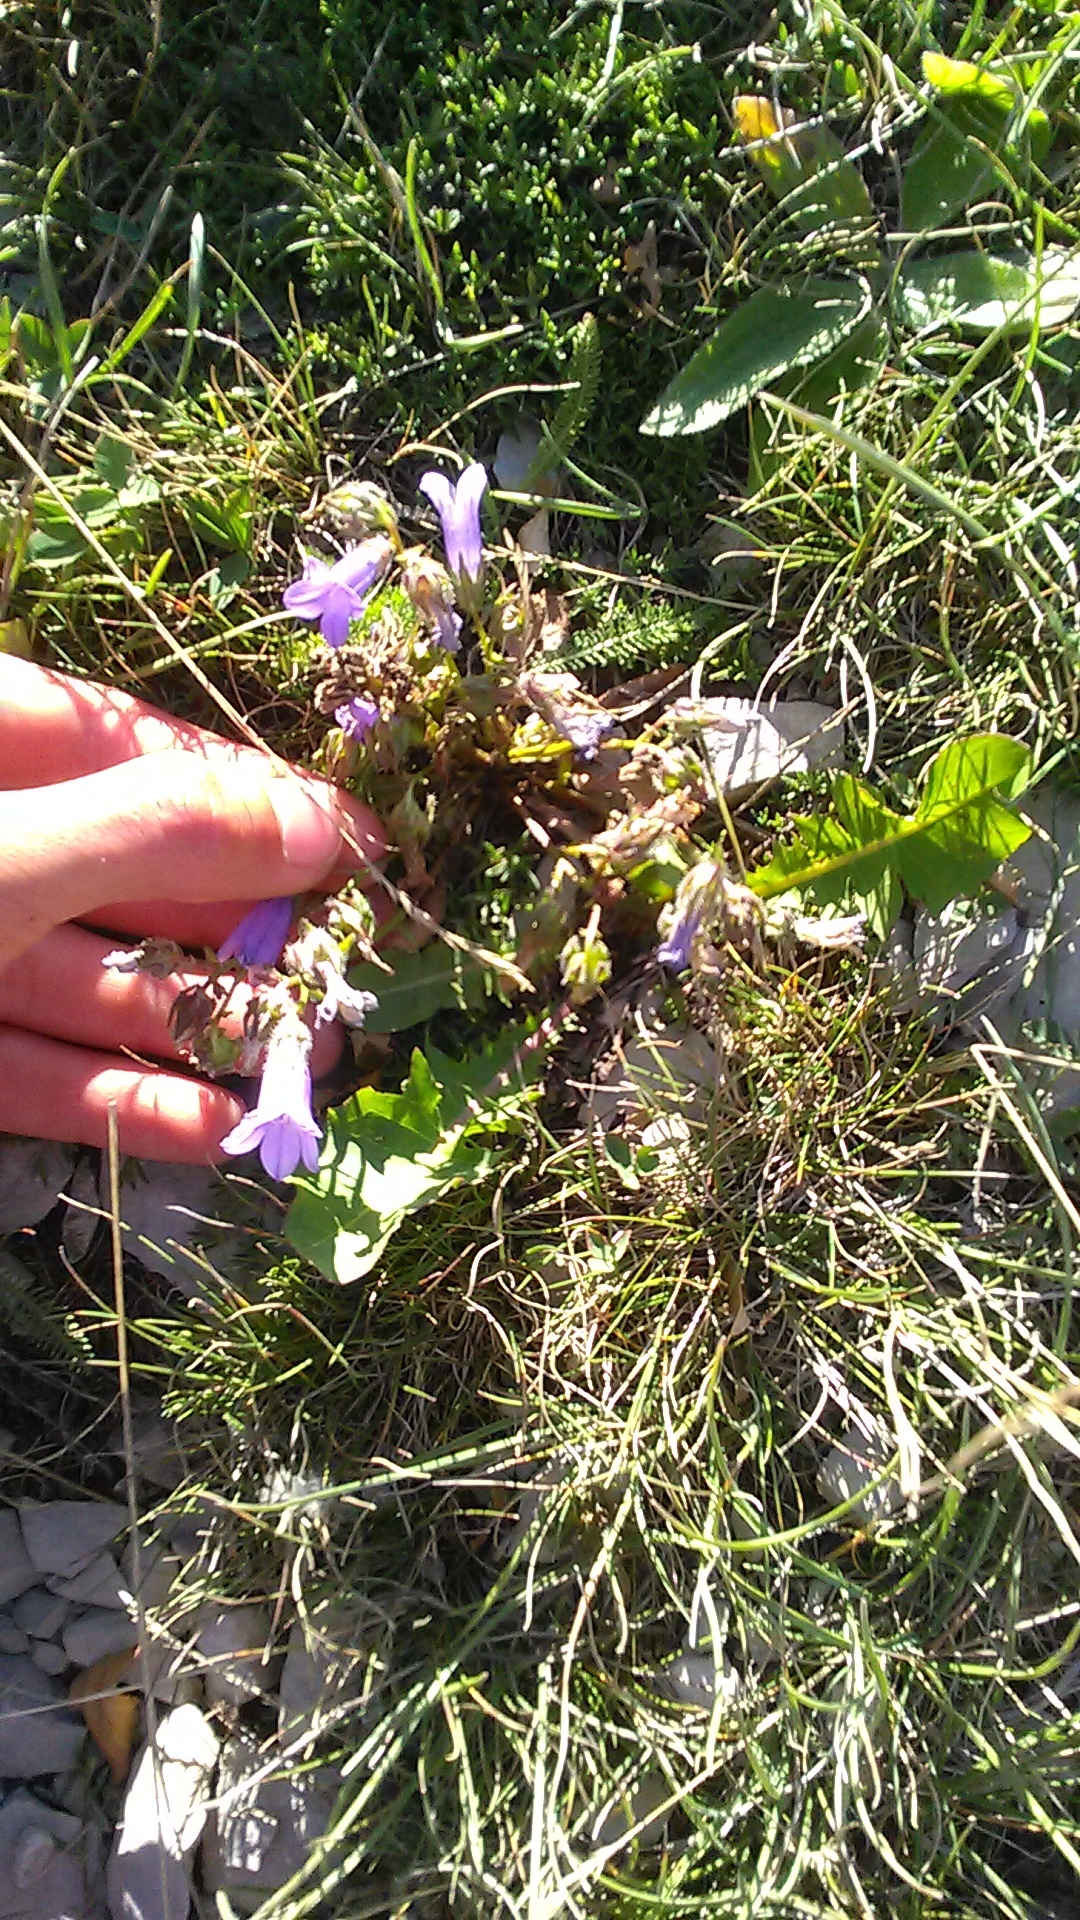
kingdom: Plantae
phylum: Tracheophyta
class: Magnoliopsida
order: Asterales
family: Campanulaceae
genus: Campanula
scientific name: Campanula sibirica
